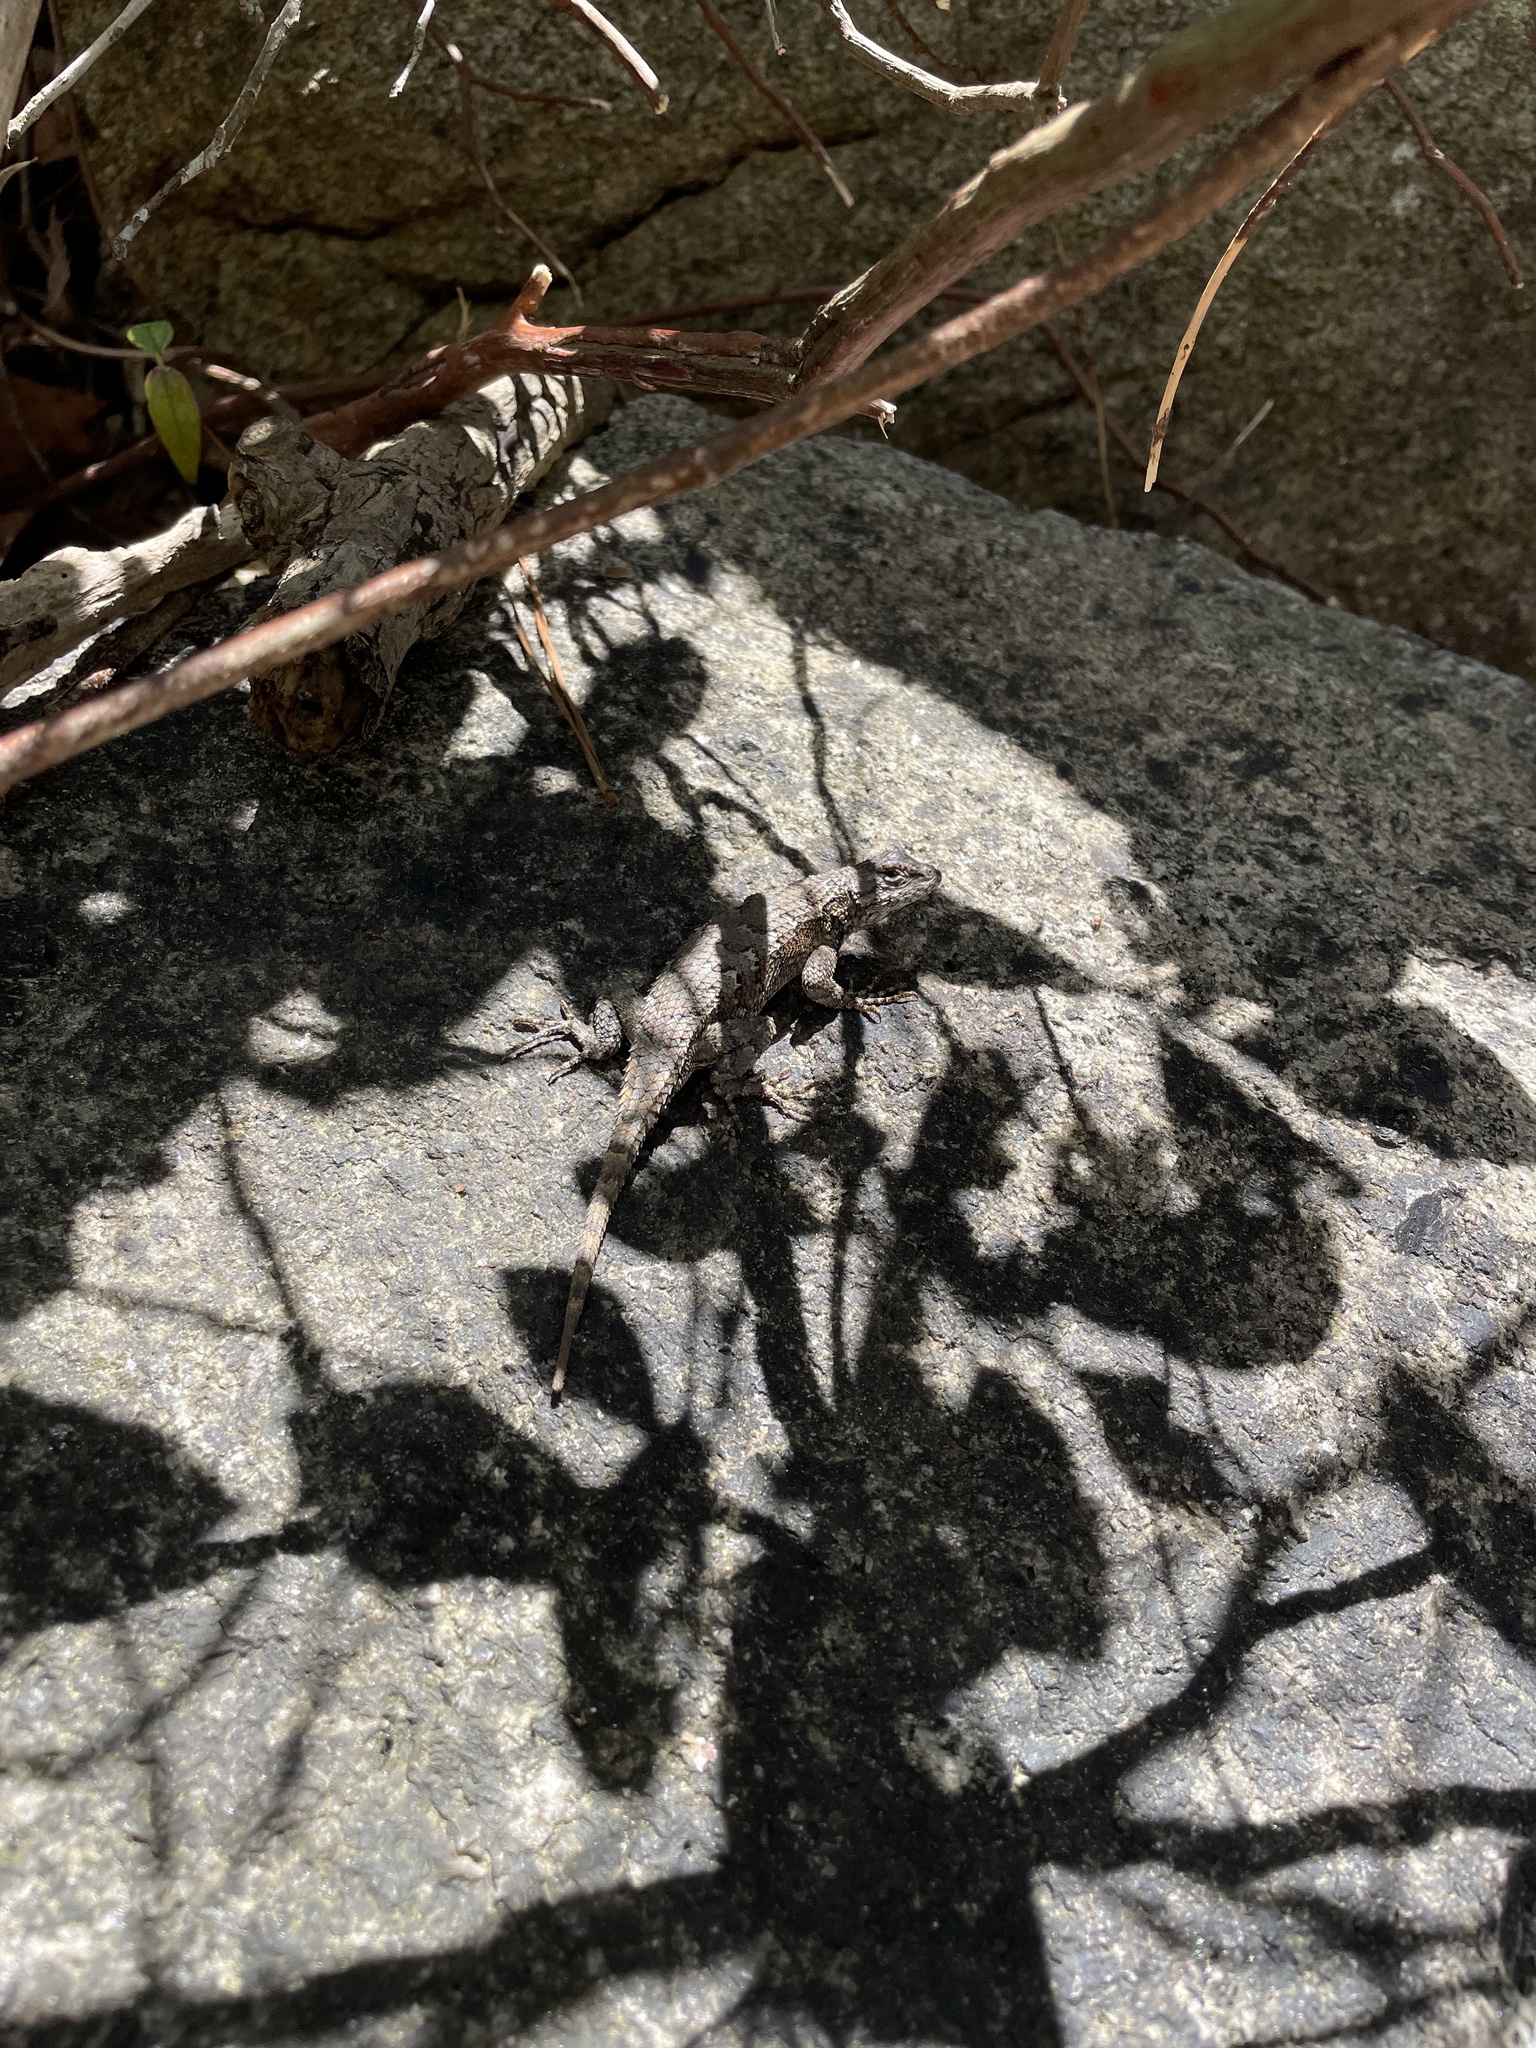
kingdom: Animalia
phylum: Chordata
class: Squamata
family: Phrynosomatidae
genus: Sceloporus
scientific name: Sceloporus undulatus
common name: Eastern fence lizard
